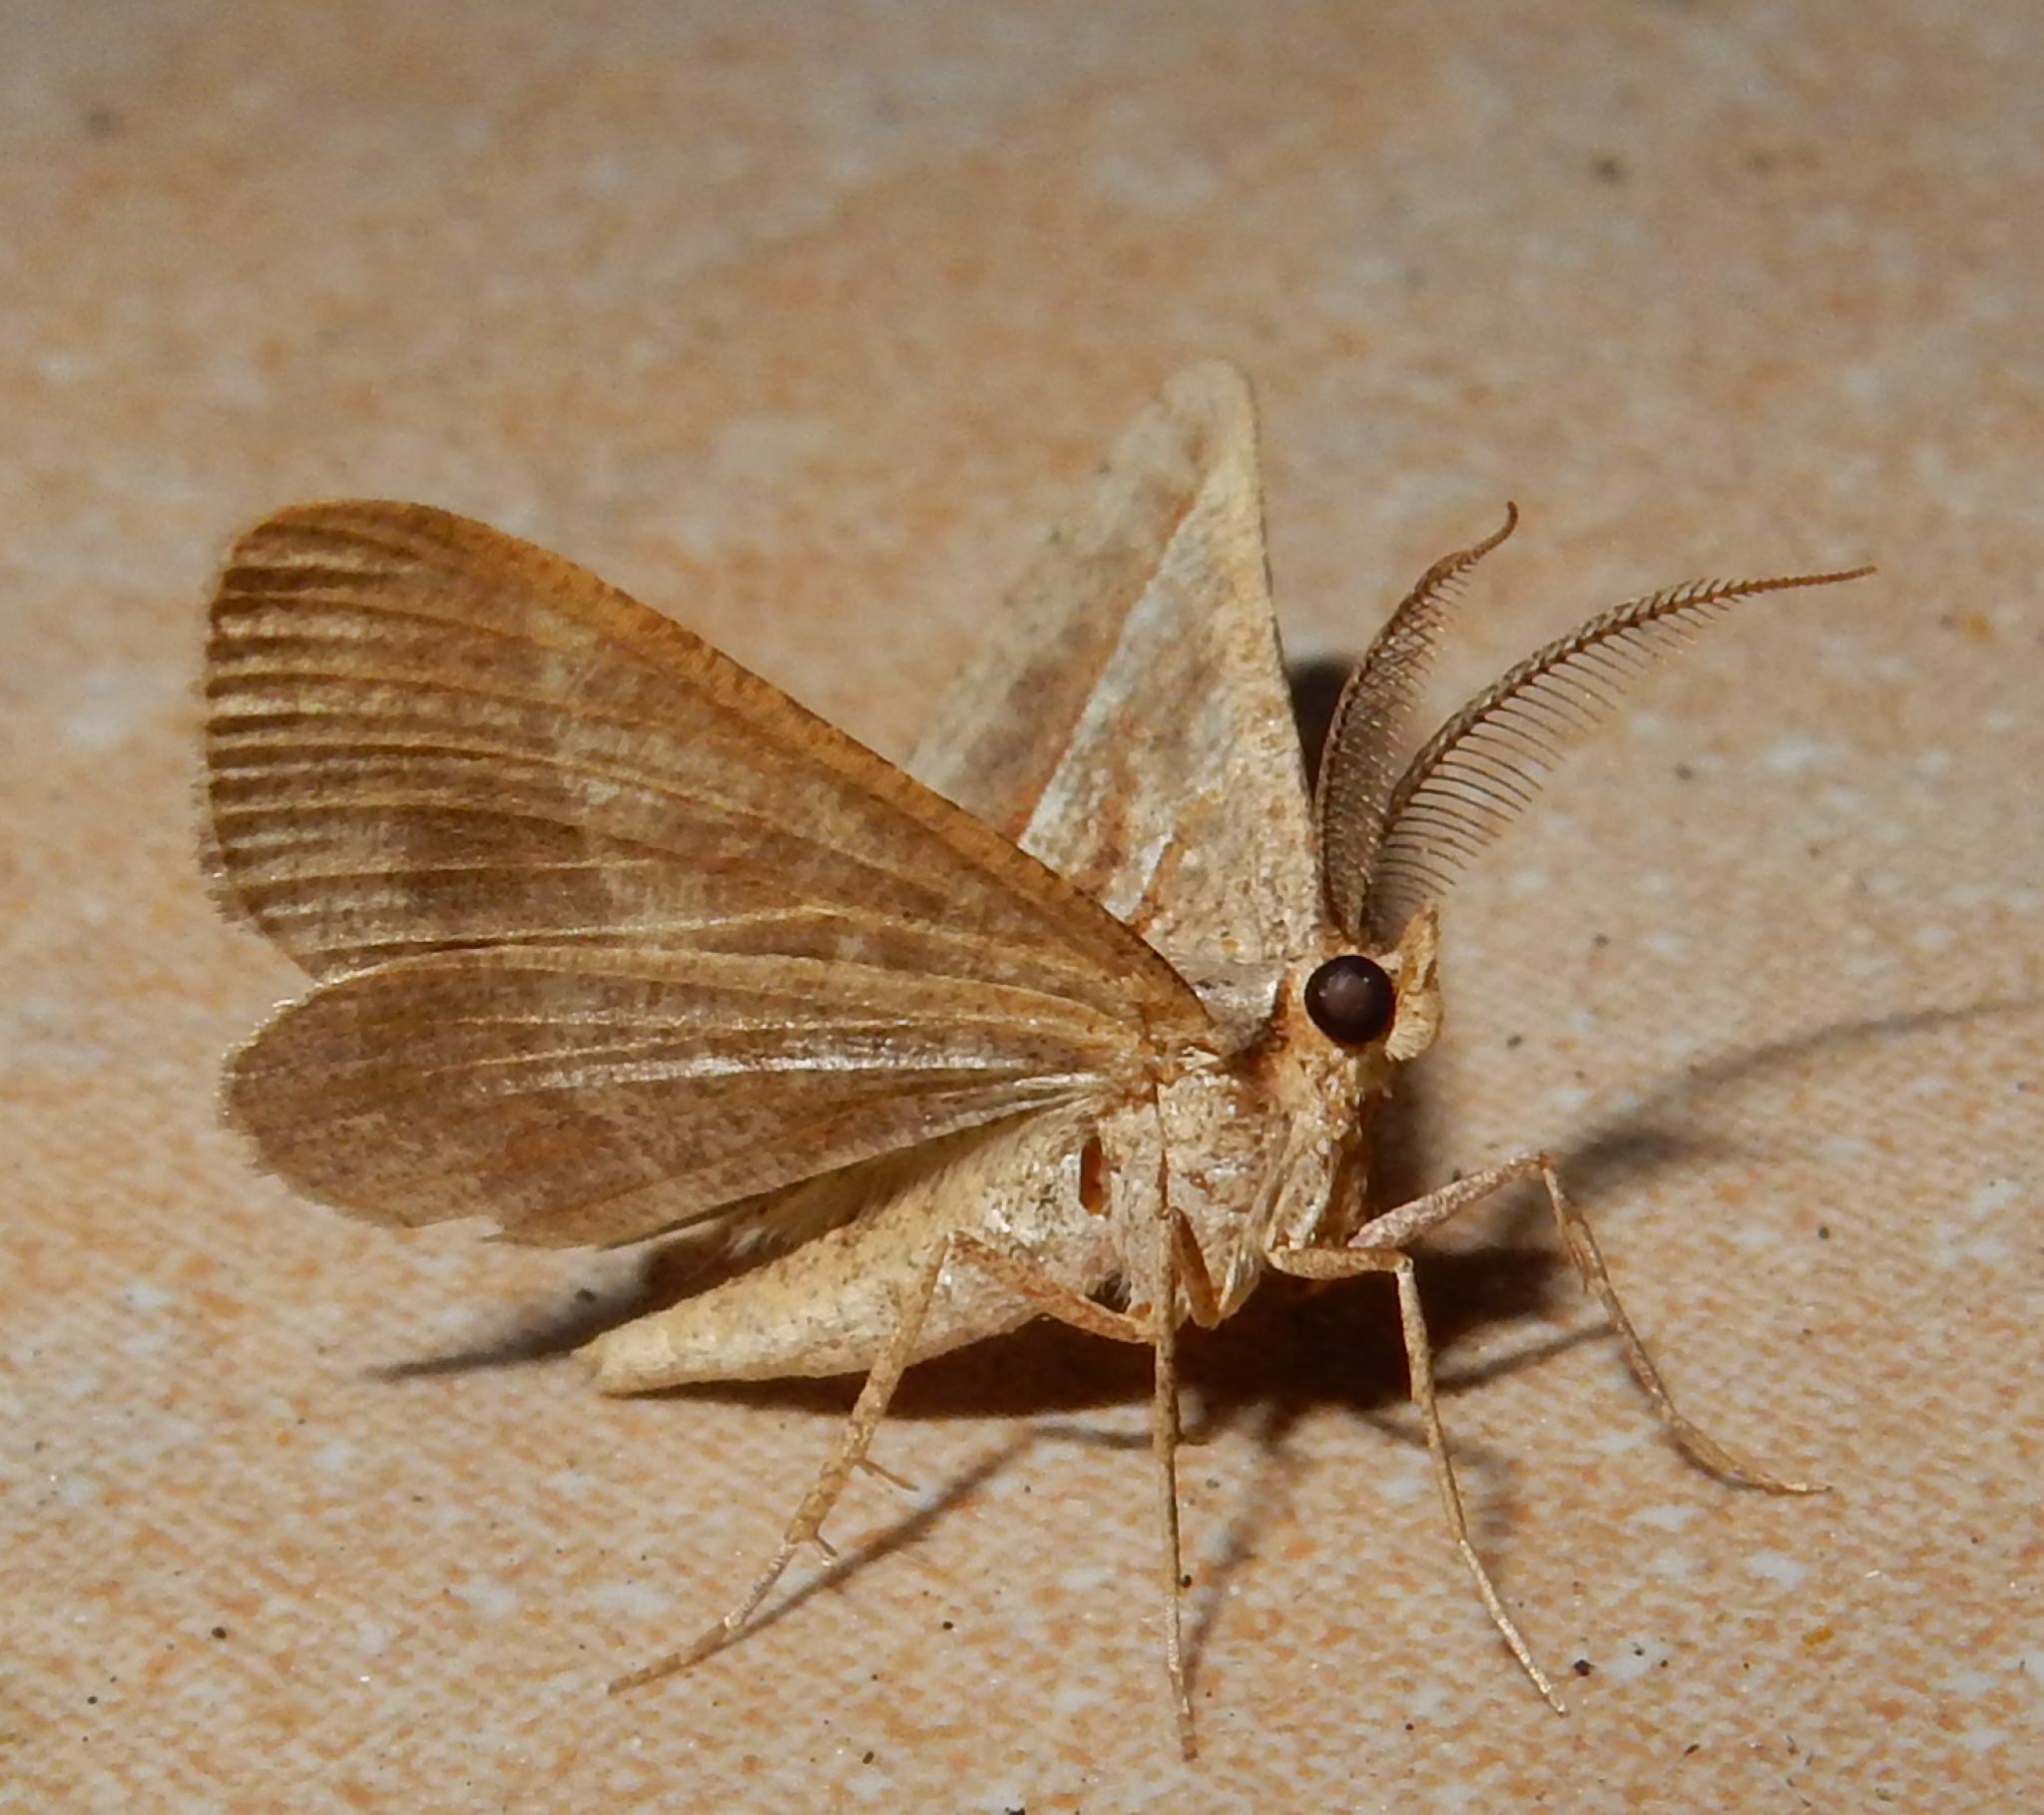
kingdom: Animalia
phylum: Arthropoda
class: Insecta
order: Lepidoptera
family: Geometridae
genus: Isturgia
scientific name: Isturgia spissata
